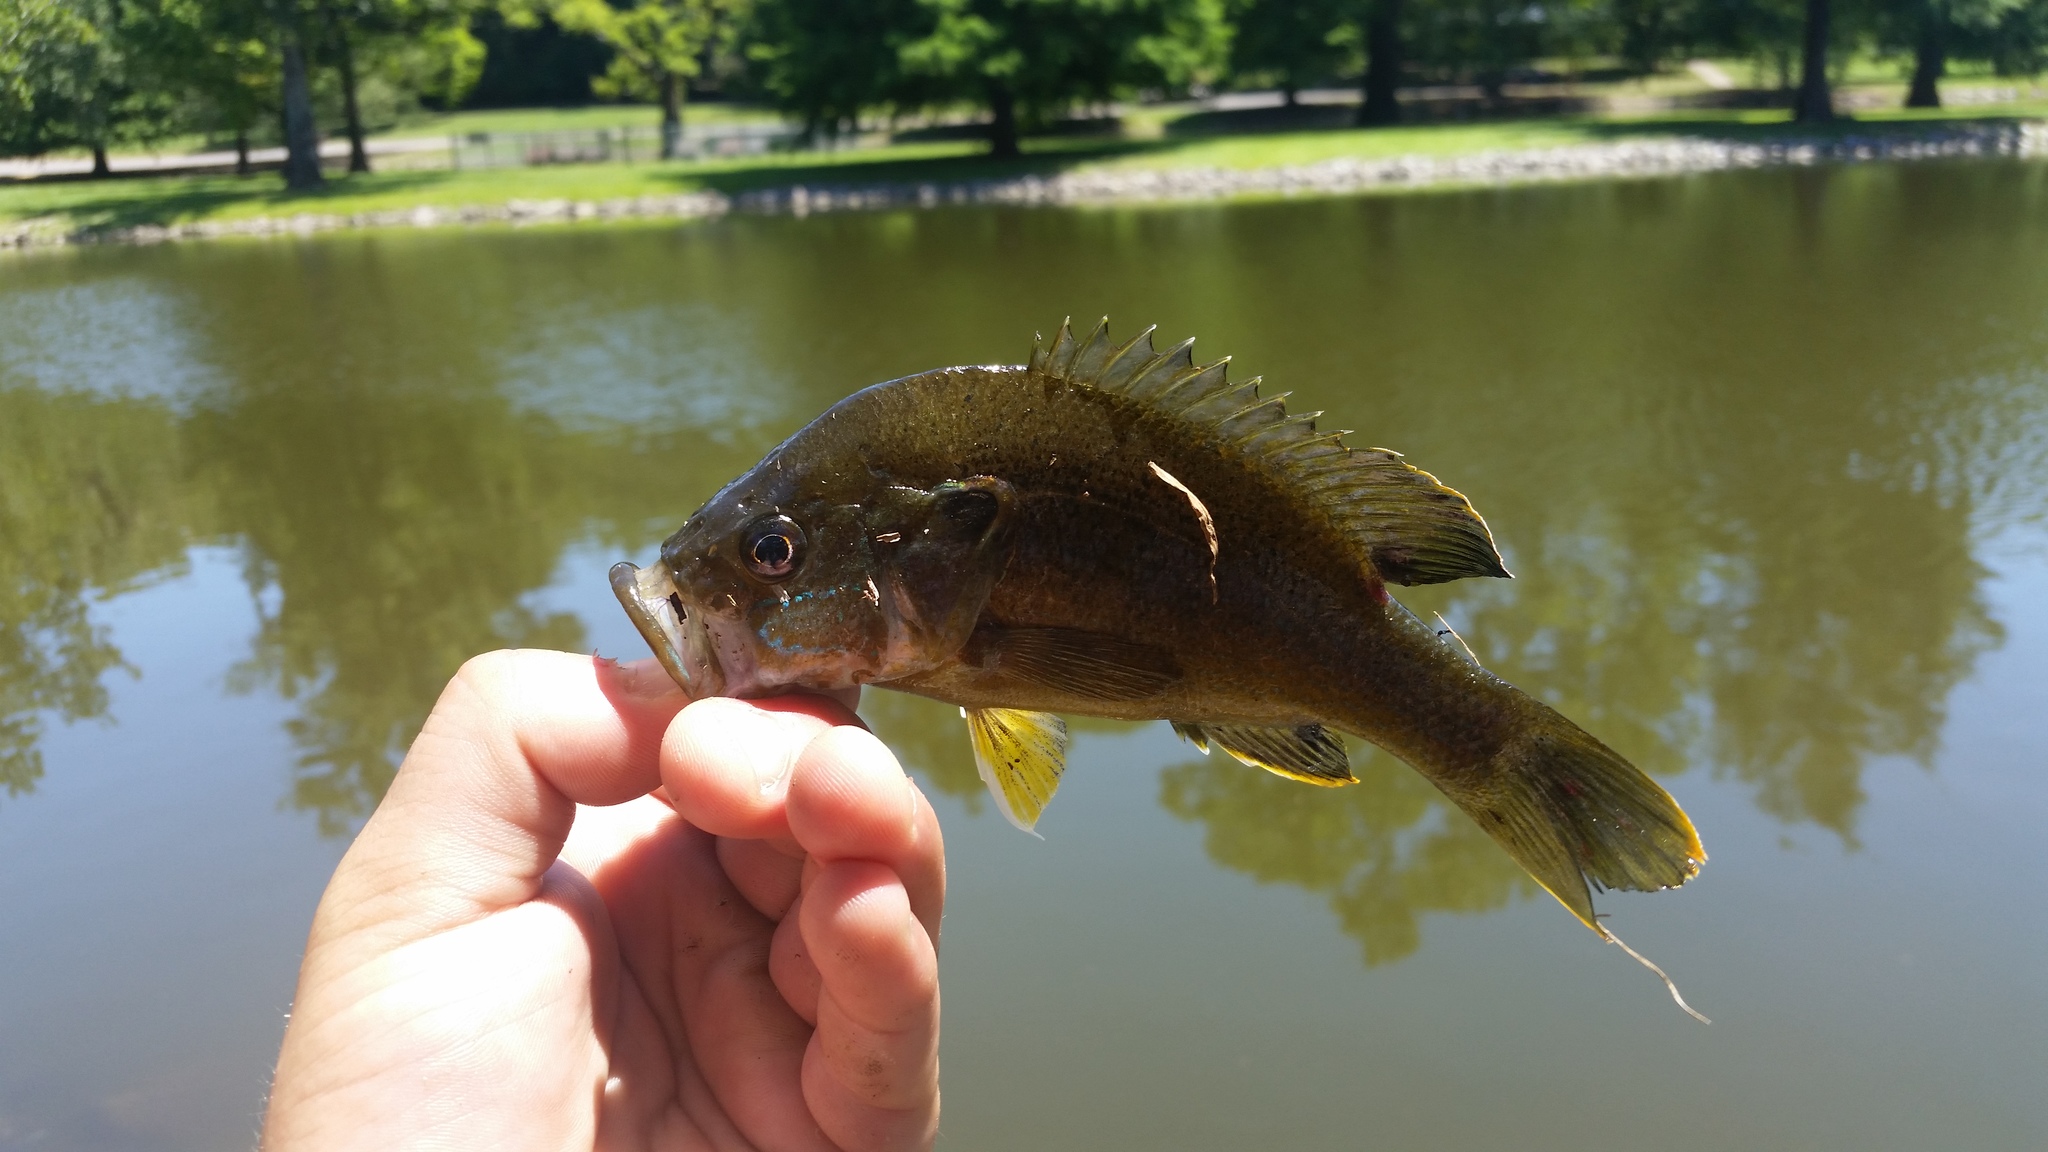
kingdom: Animalia
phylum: Chordata
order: Perciformes
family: Centrarchidae
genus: Lepomis
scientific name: Lepomis cyanellus
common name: Green sunfish
